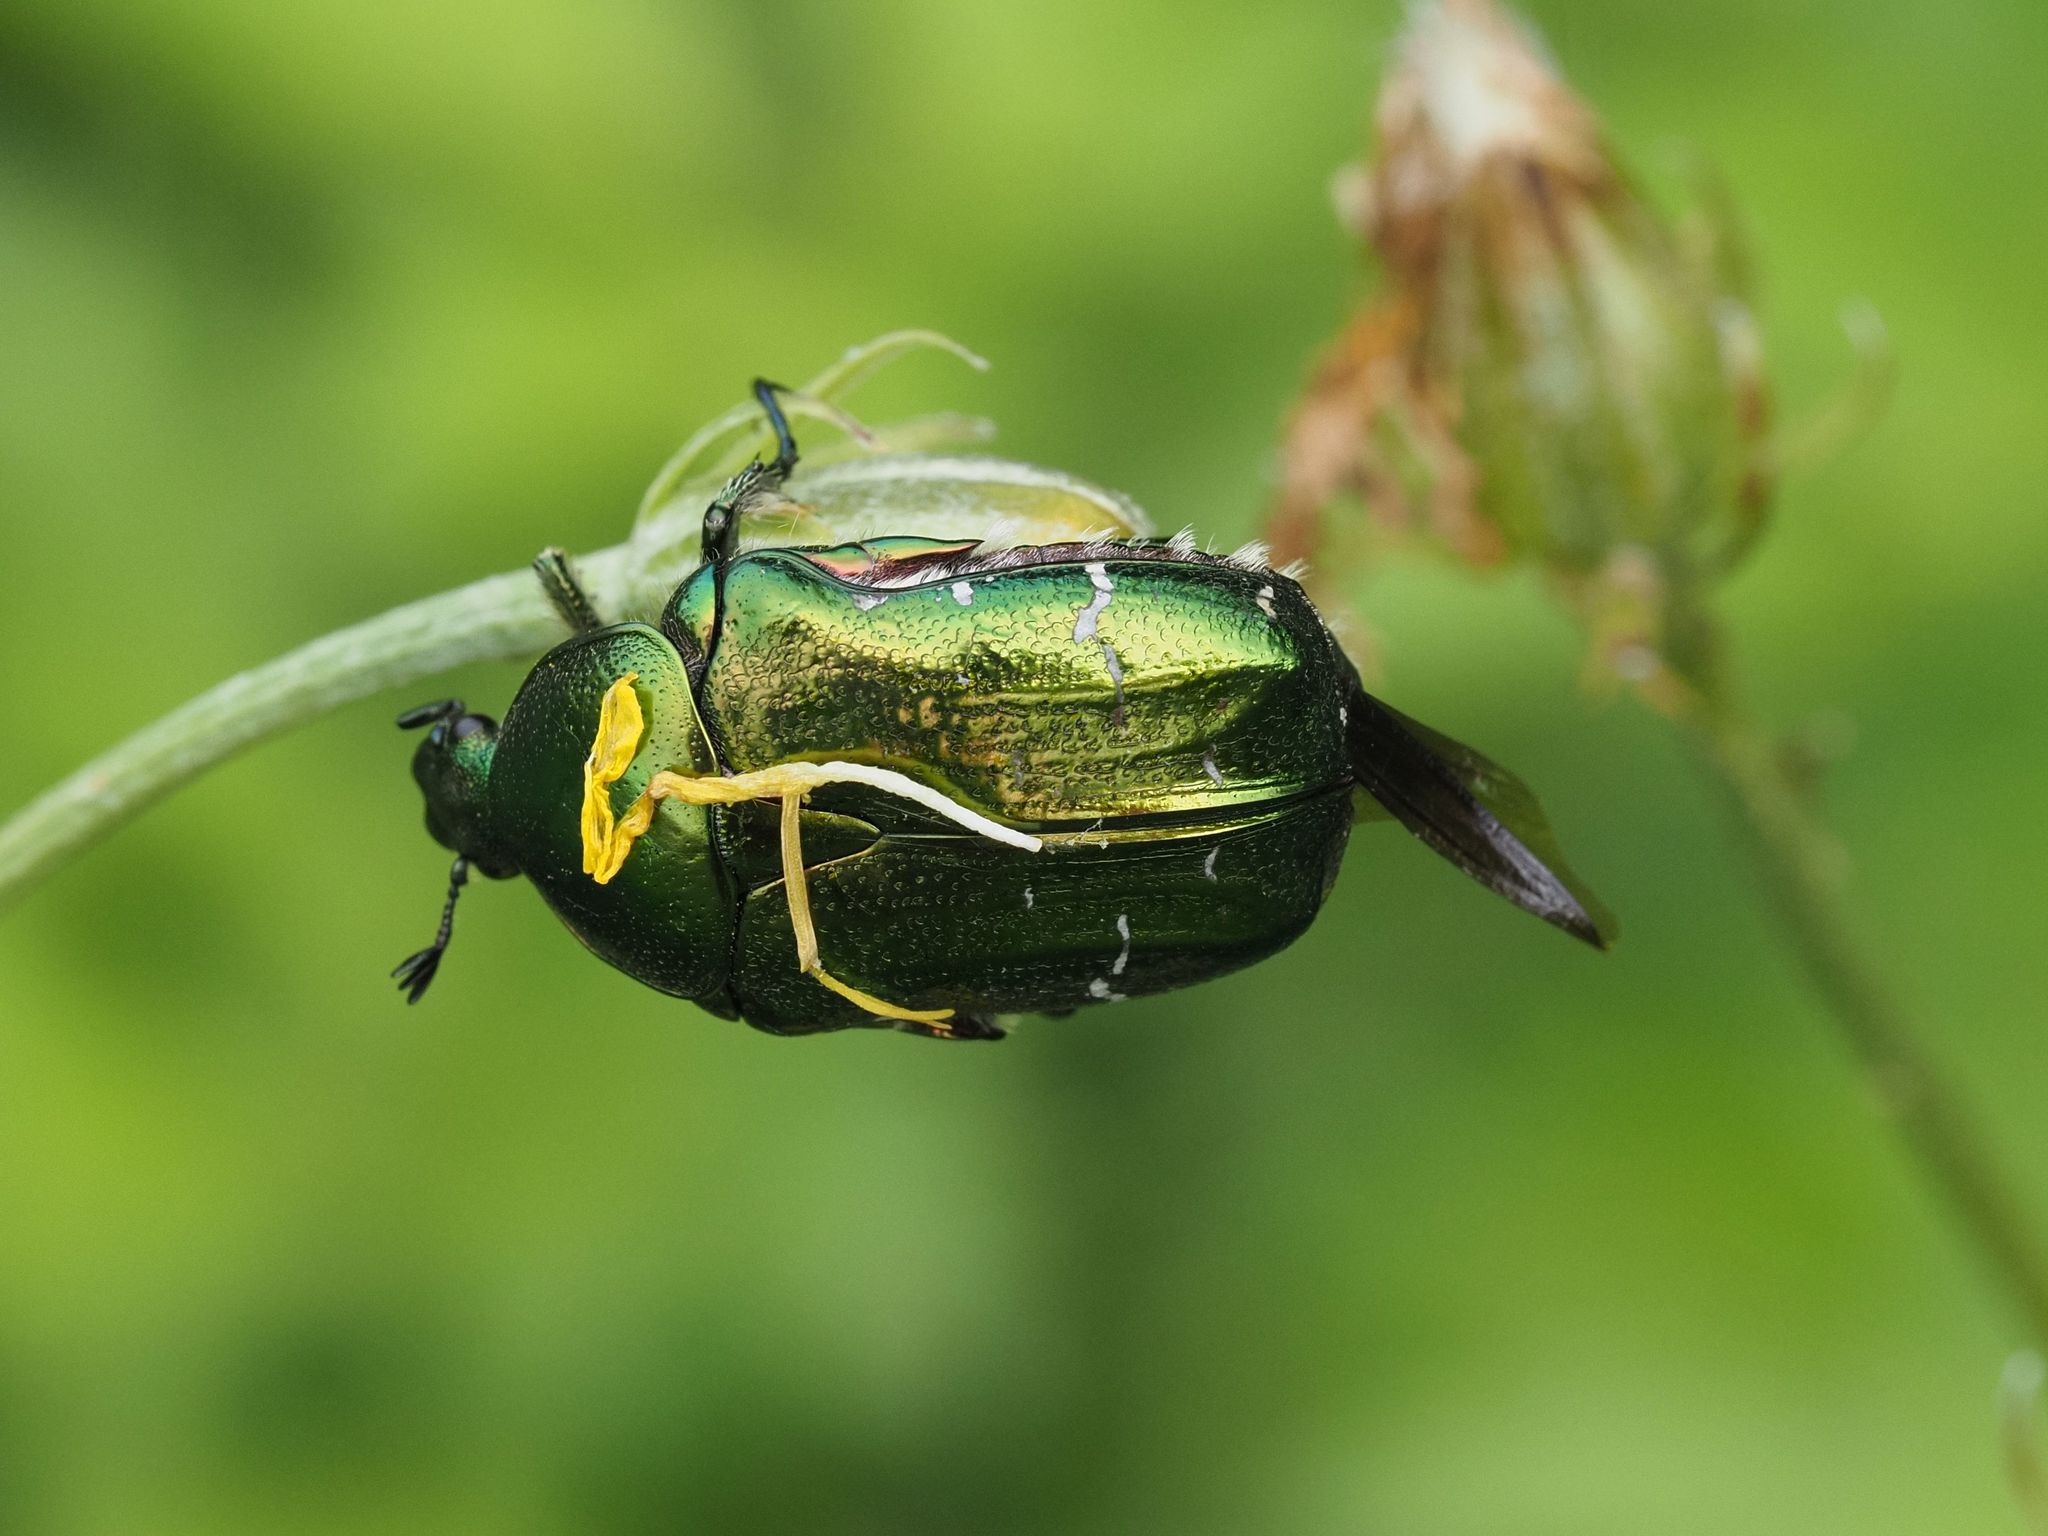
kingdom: Animalia
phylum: Arthropoda
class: Insecta
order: Coleoptera
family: Scarabaeidae
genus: Cetonia
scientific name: Cetonia aurata
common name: Rose chafer
